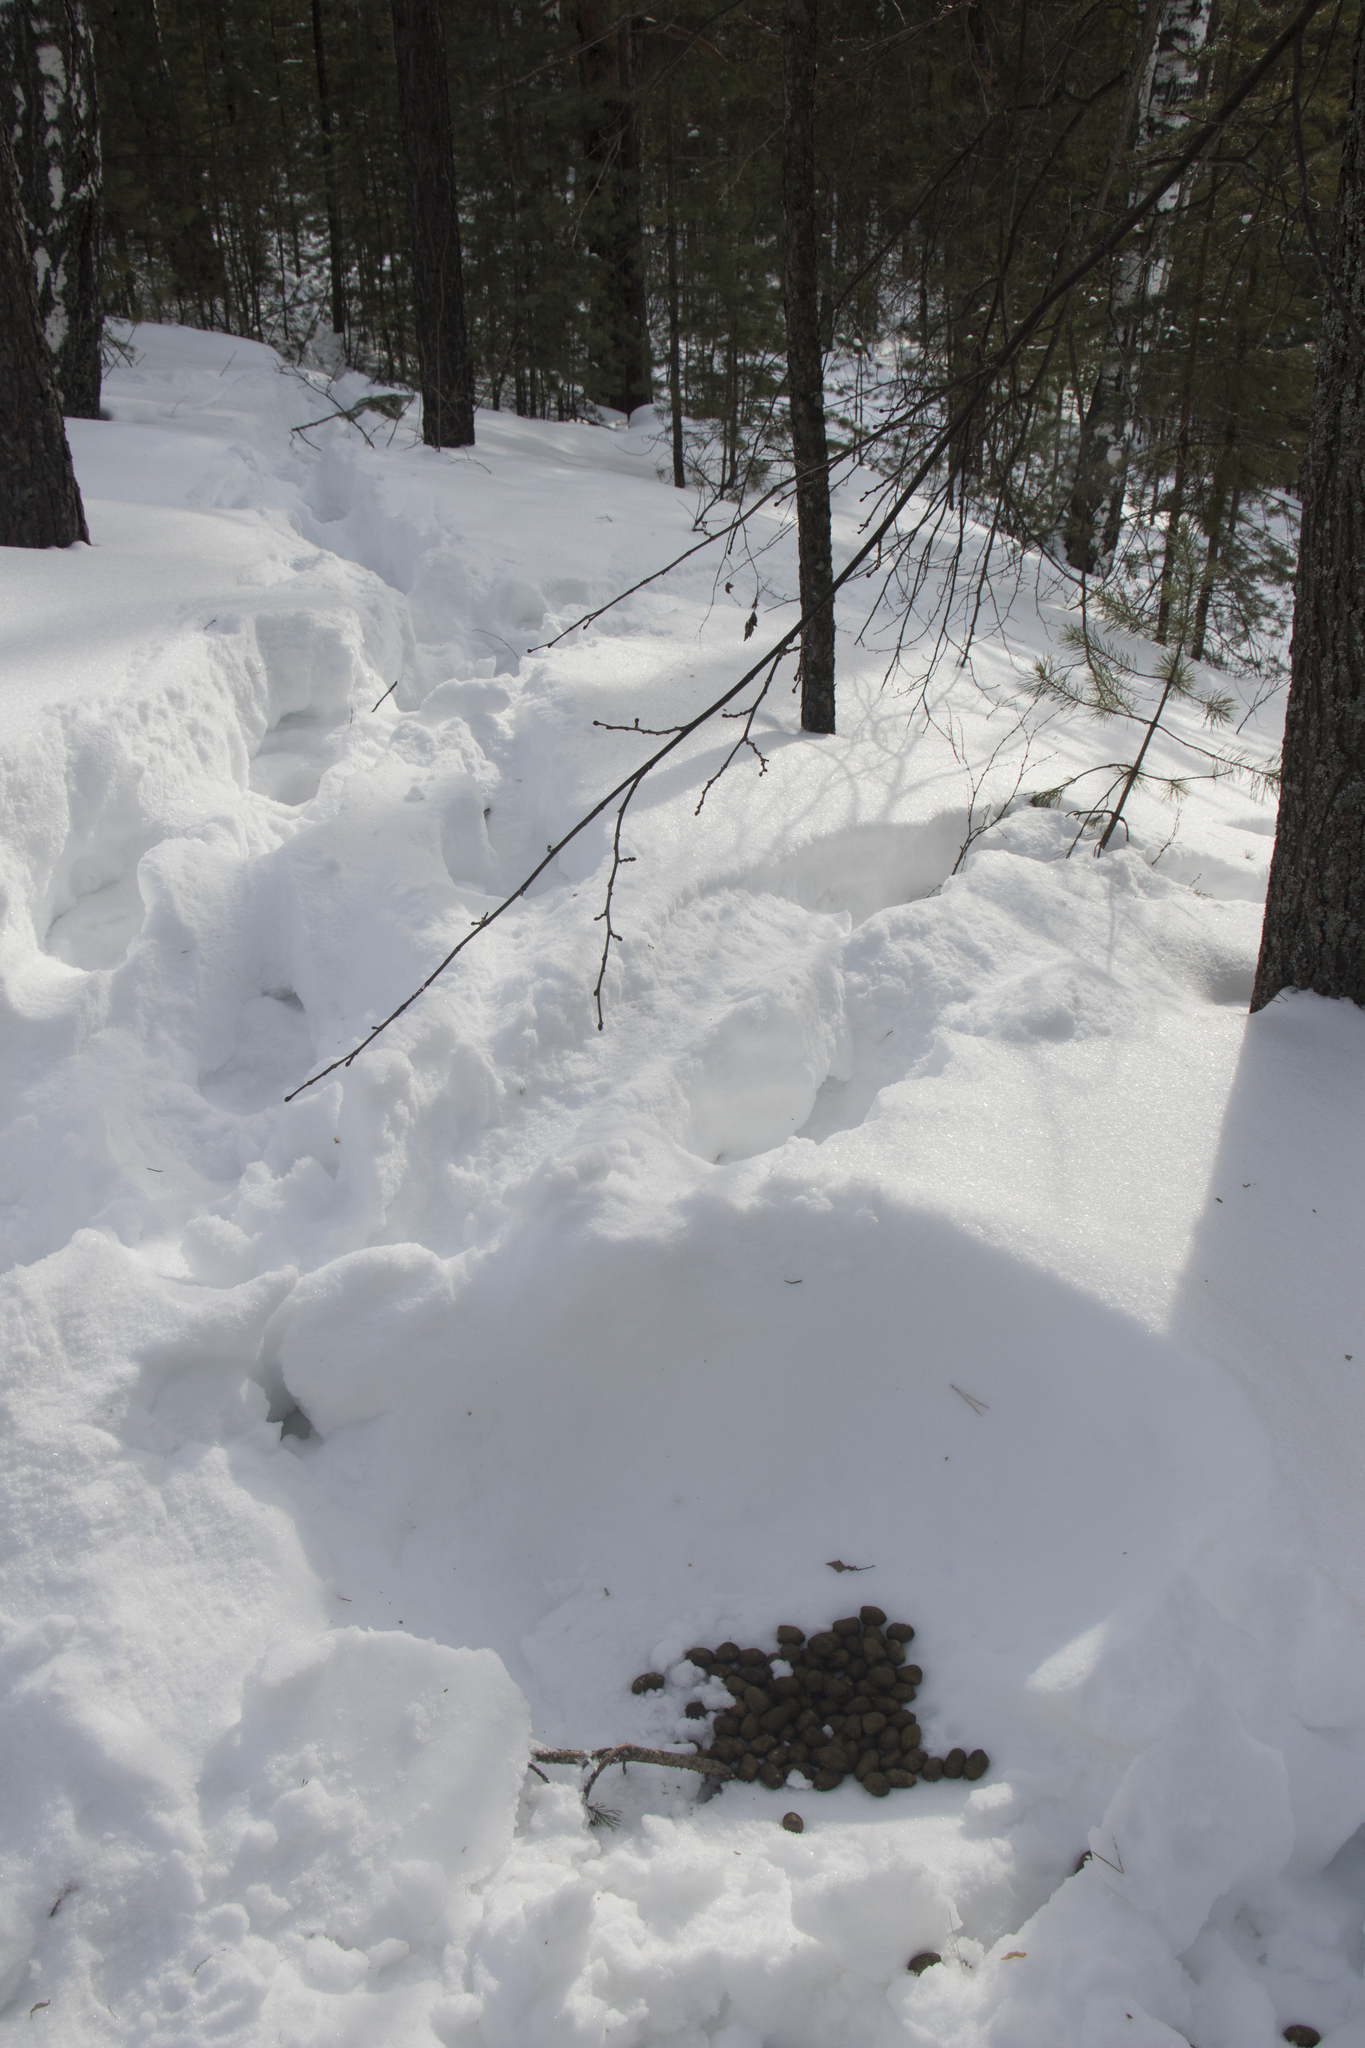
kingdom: Animalia
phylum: Chordata
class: Mammalia
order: Artiodactyla
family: Cervidae
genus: Alces
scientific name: Alces alces
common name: Moose
